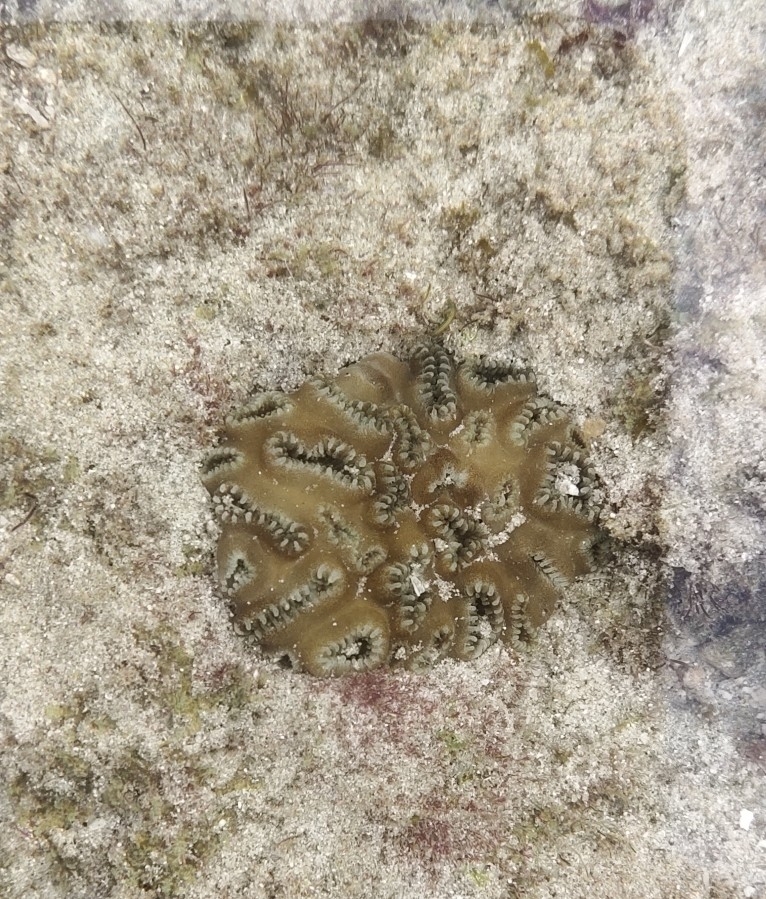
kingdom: Animalia
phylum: Cnidaria
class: Anthozoa
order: Zoantharia
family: Sphenopidae
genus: Palythoa
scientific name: Palythoa tuberculosa
